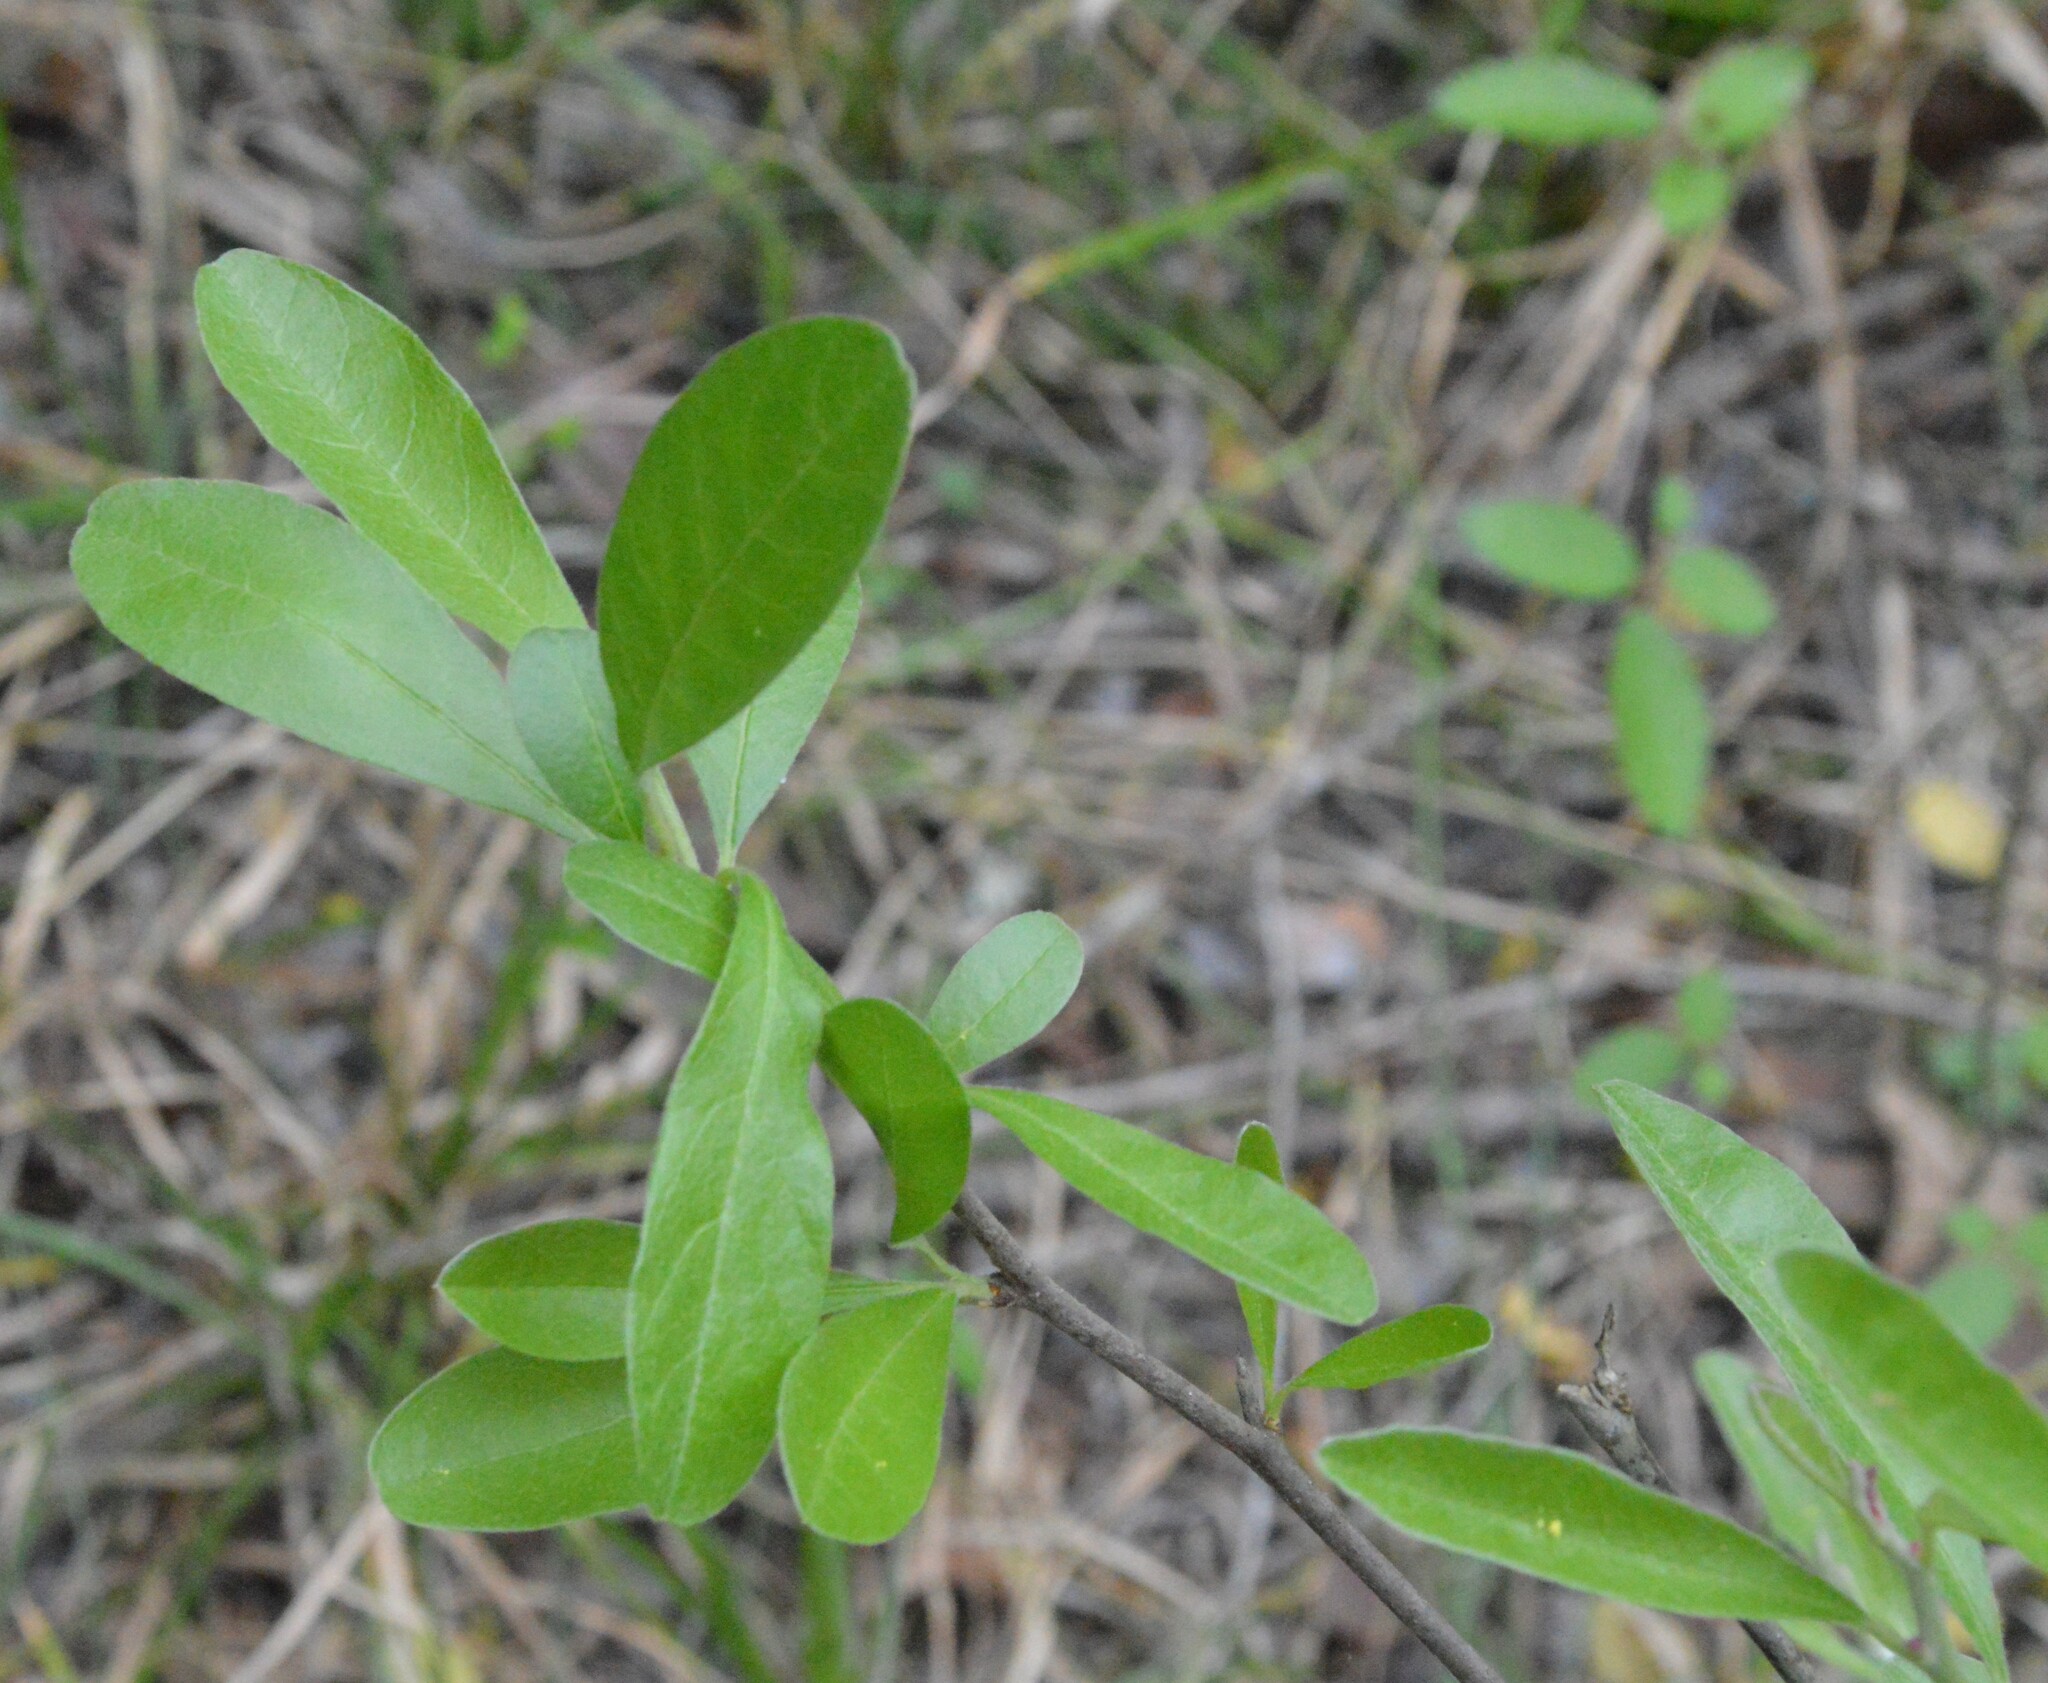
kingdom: Plantae
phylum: Tracheophyta
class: Magnoliopsida
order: Ericales
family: Sapotaceae
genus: Sideroxylon
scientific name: Sideroxylon lanuginosum
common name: Chittamwood
